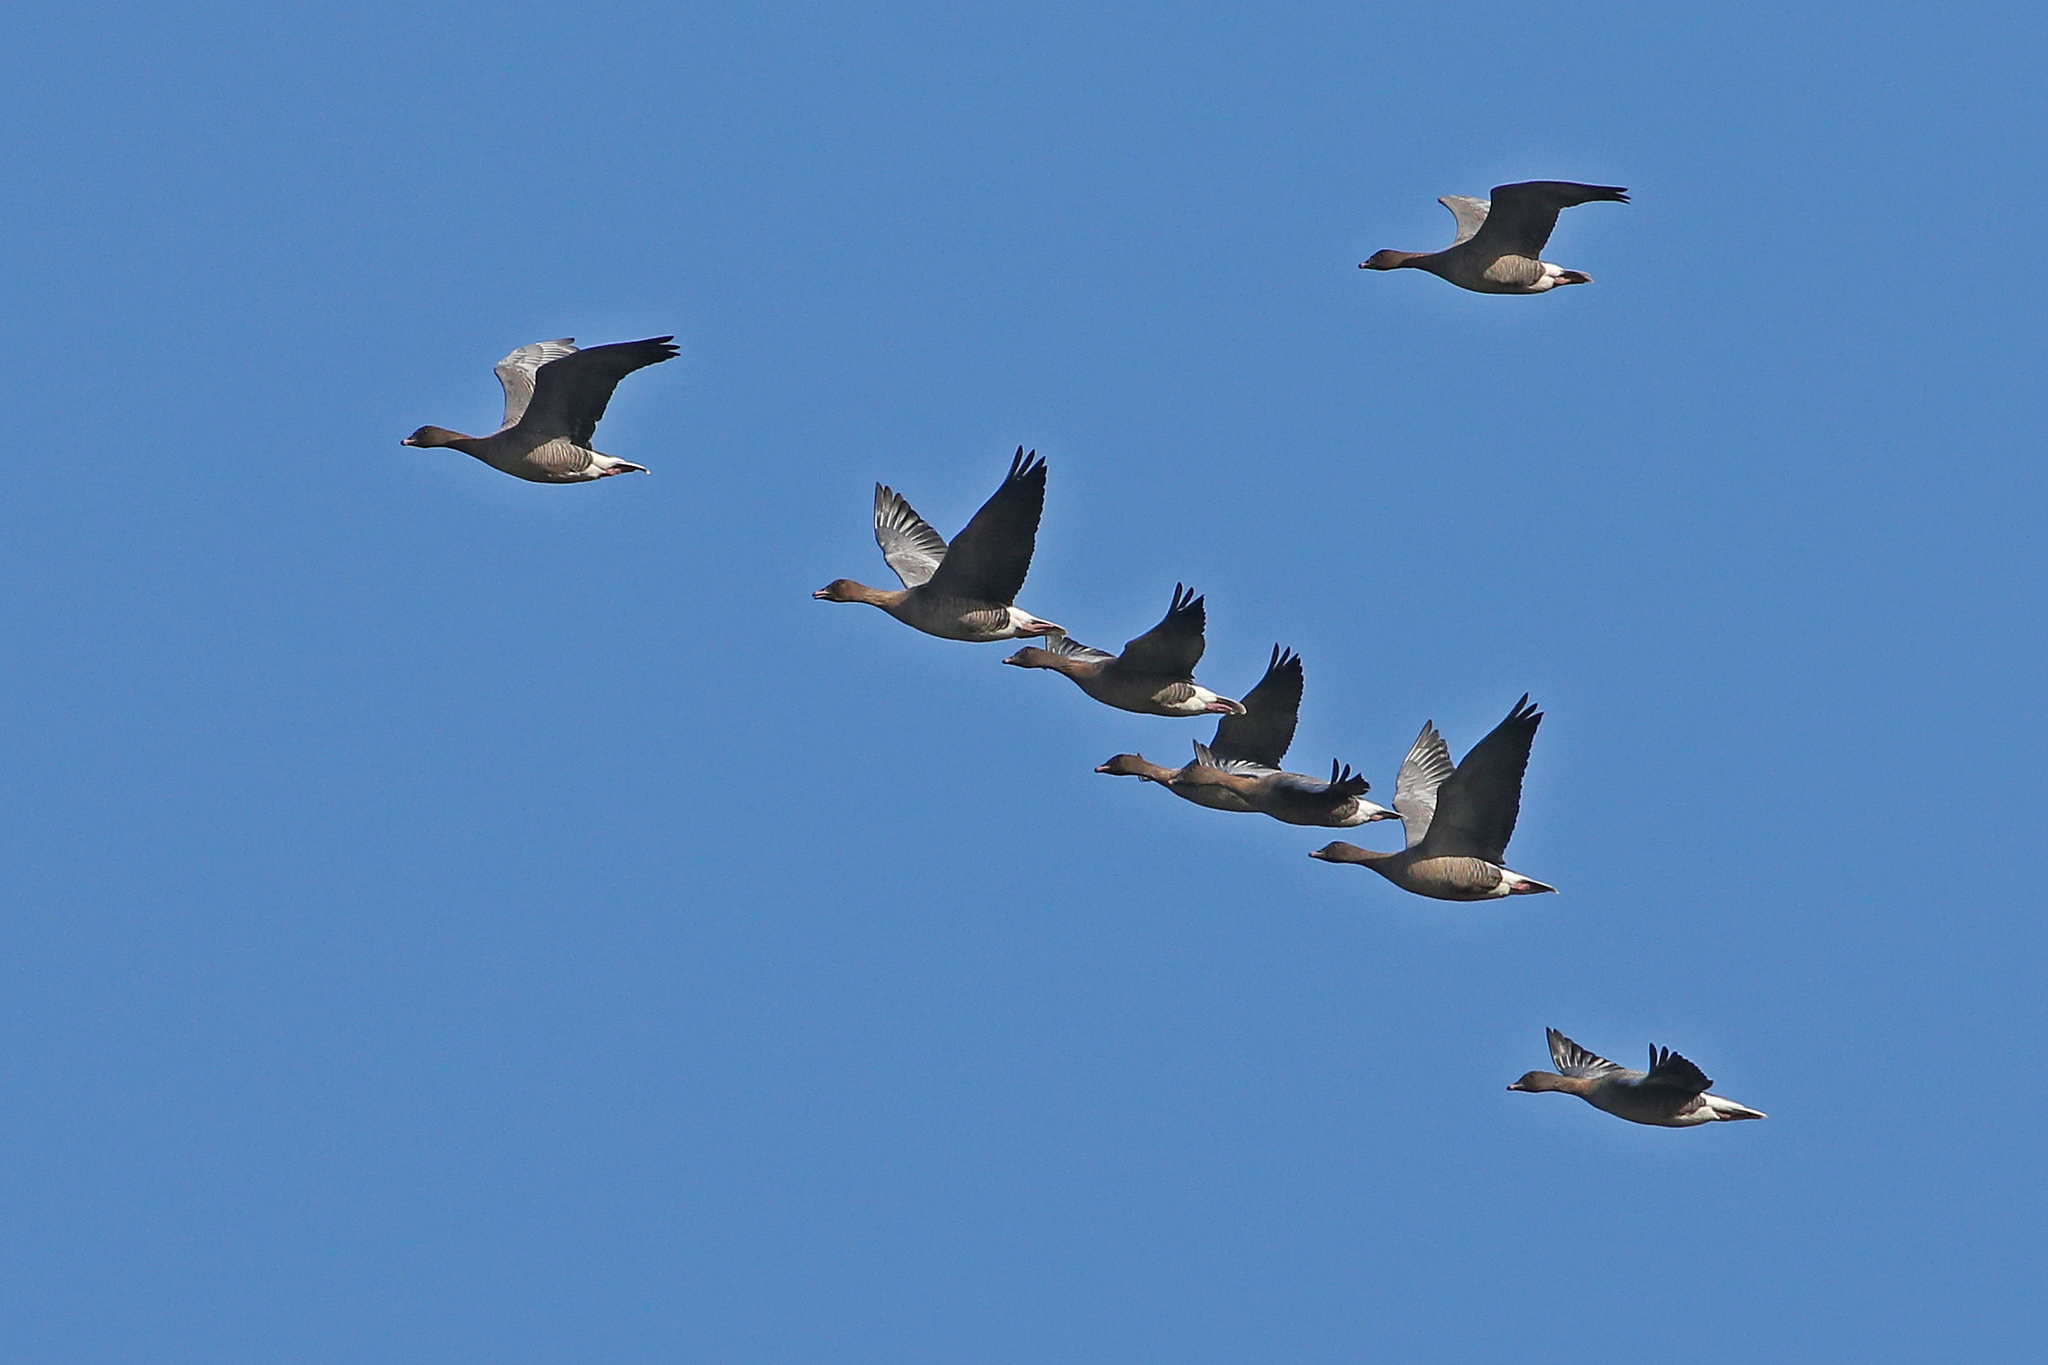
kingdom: Animalia
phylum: Chordata
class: Aves
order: Anseriformes
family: Anatidae
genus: Anser
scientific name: Anser brachyrhynchus
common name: Pink-footed goose
